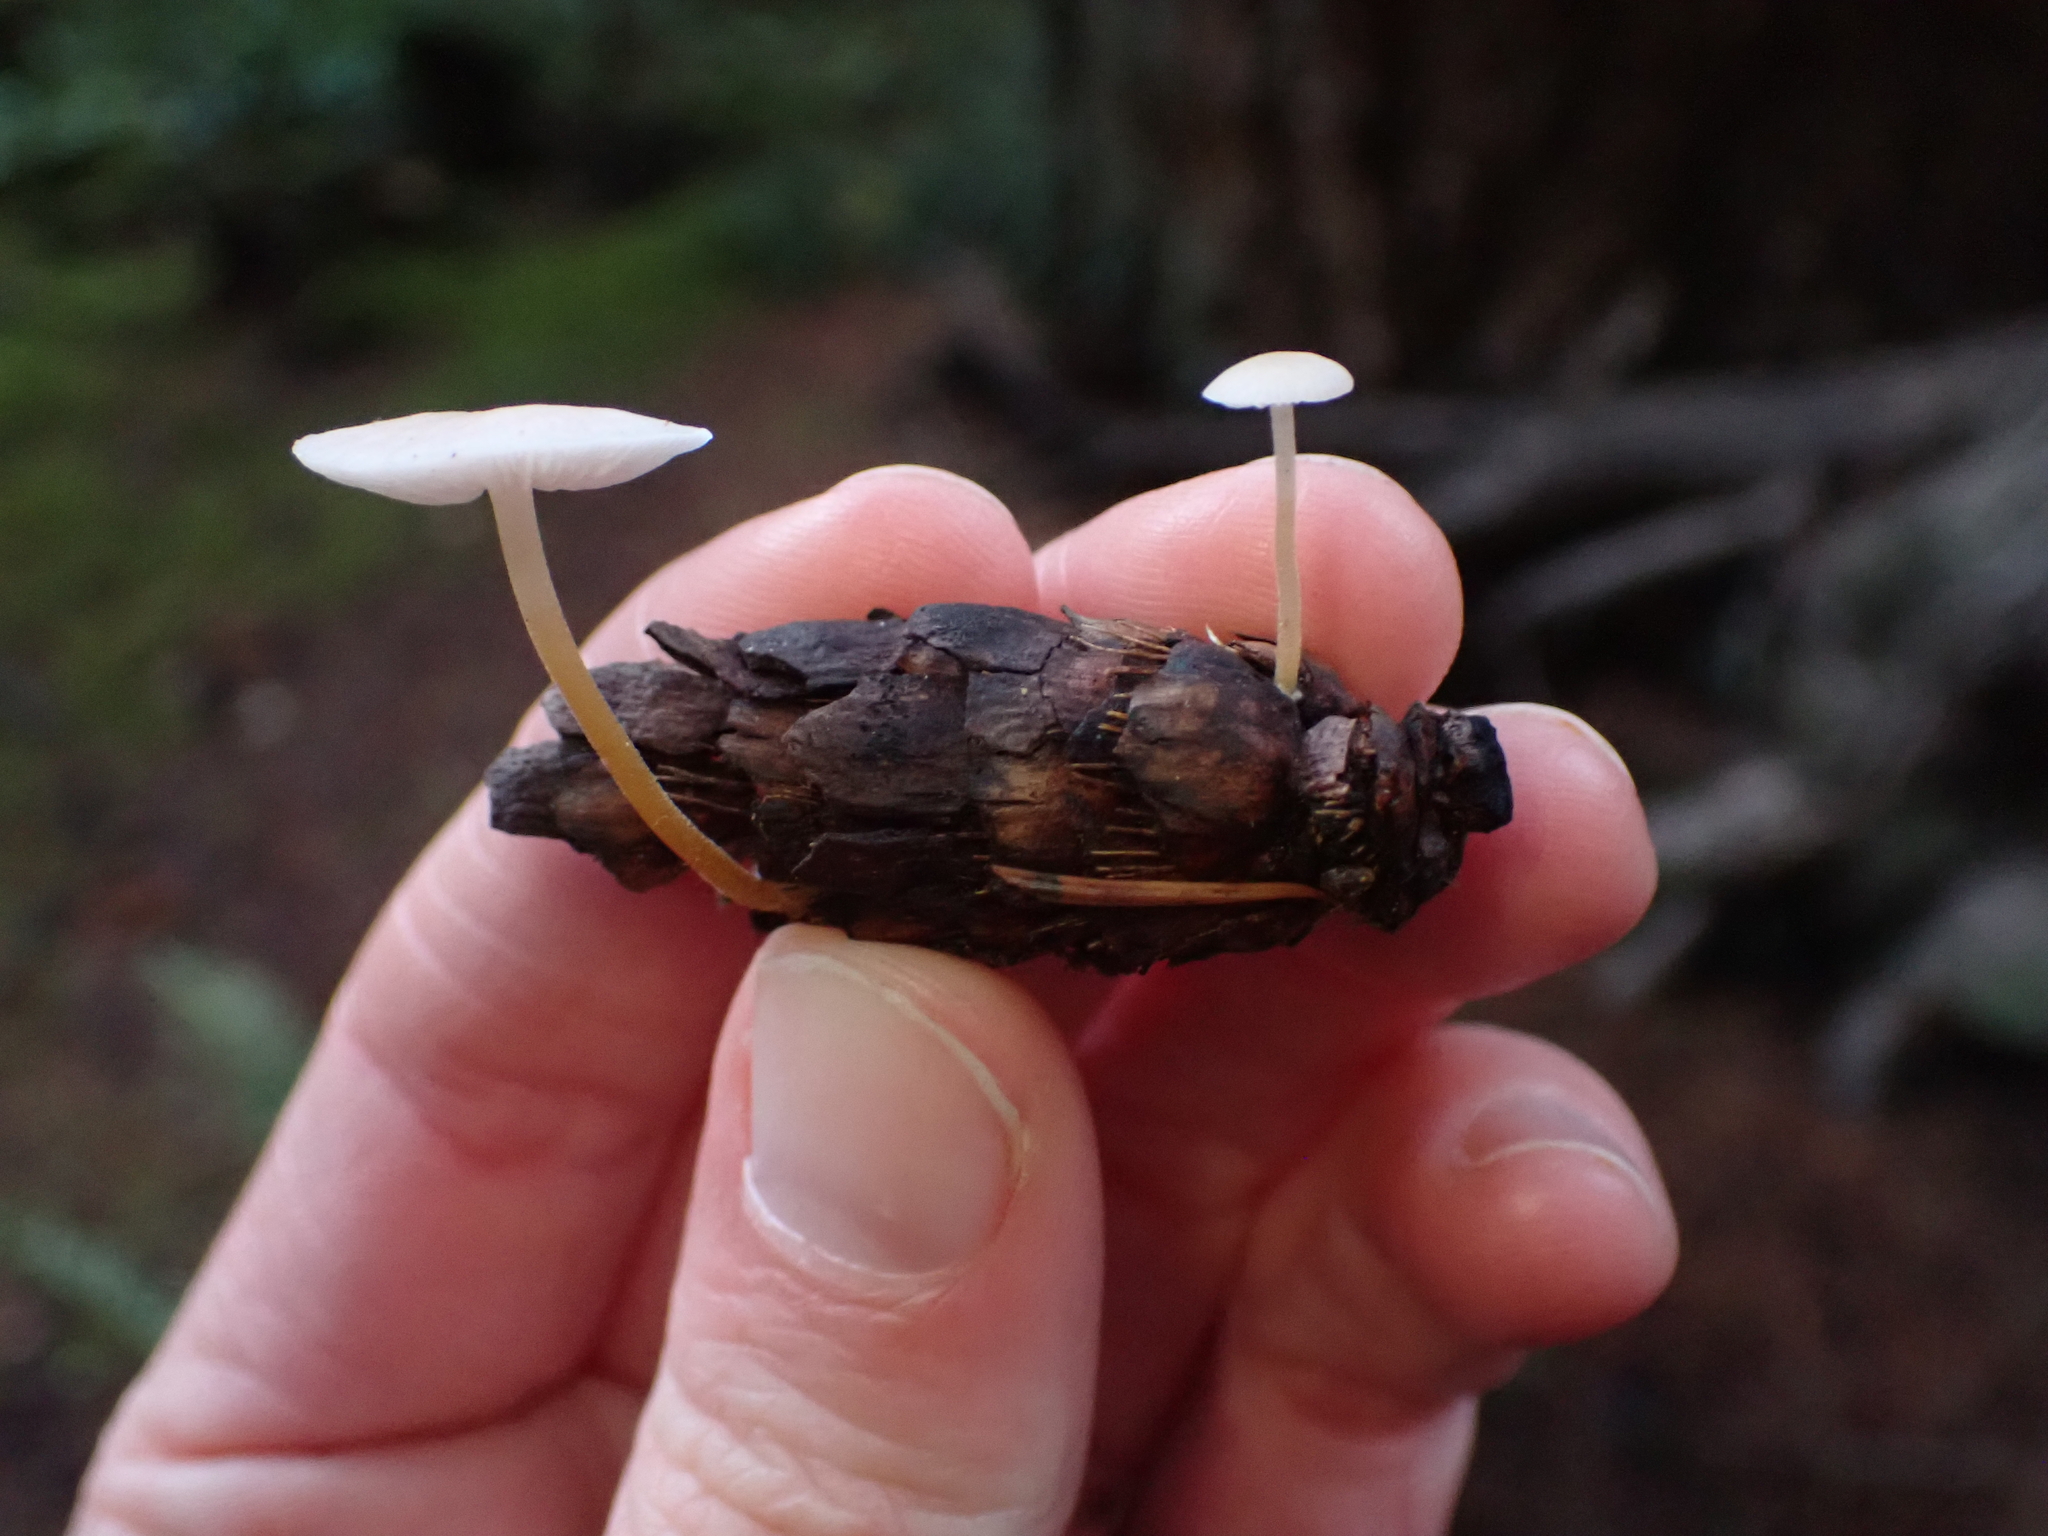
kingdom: Fungi
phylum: Basidiomycota
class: Agaricomycetes
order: Agaricales
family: Physalacriaceae
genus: Strobilurus
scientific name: Strobilurus trullisatus
